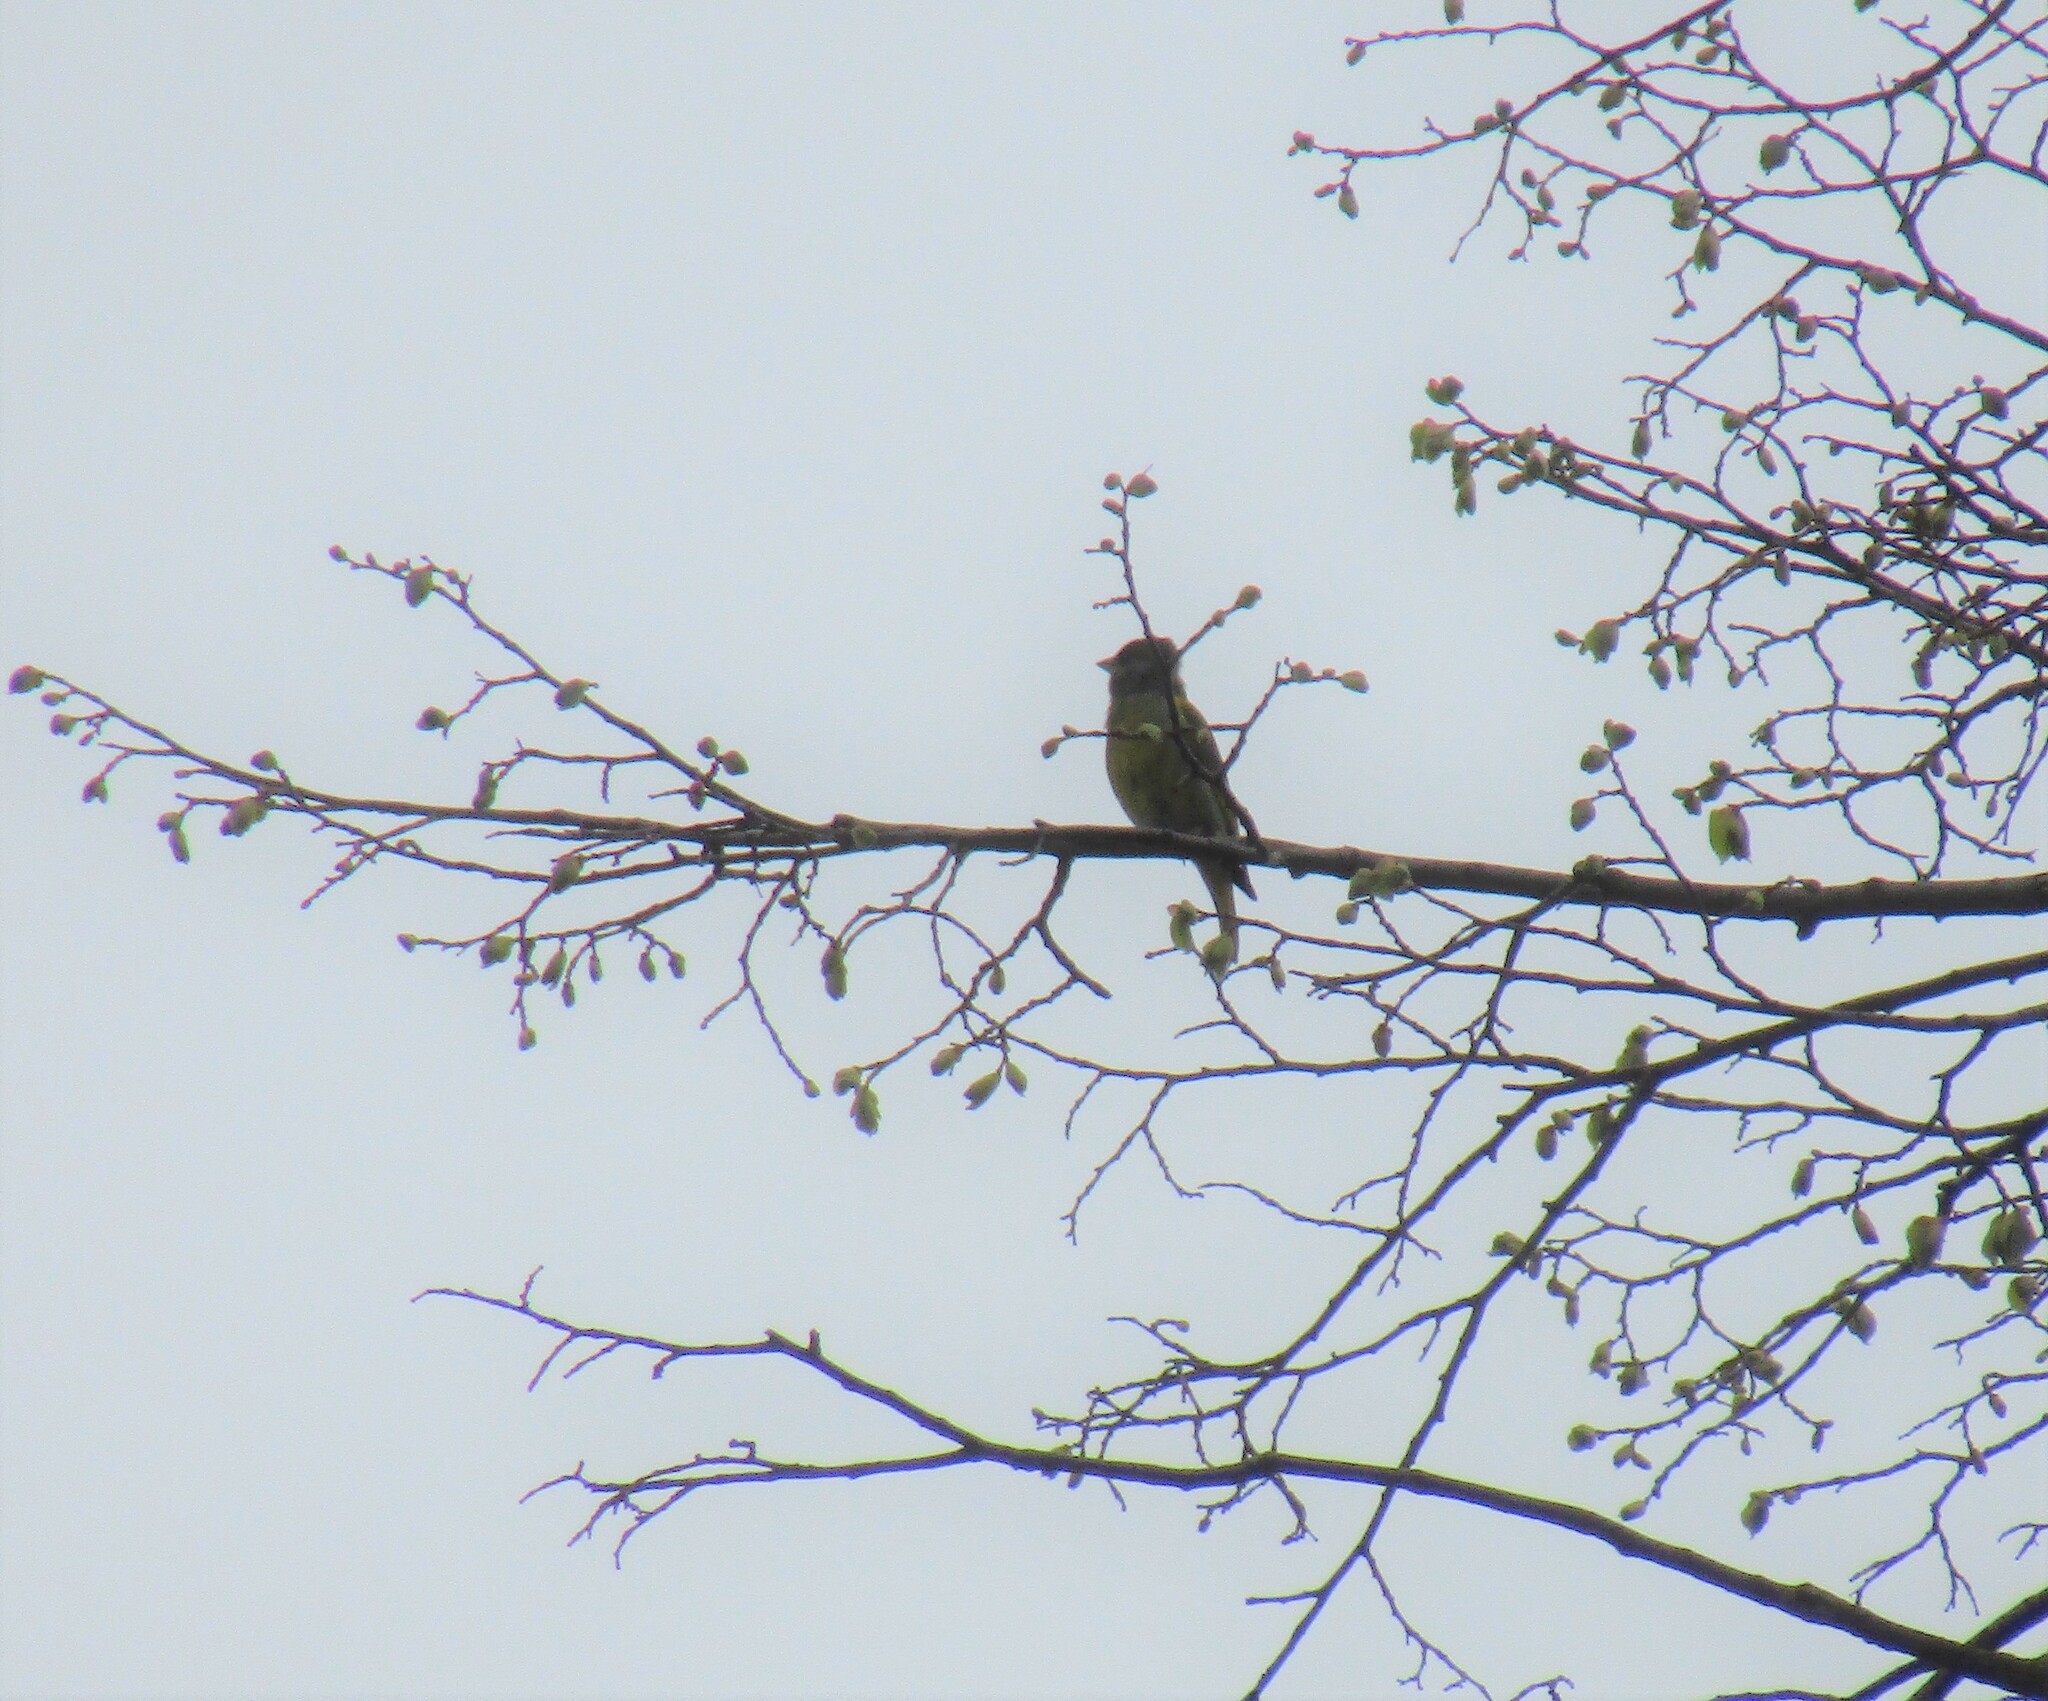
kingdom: Plantae
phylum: Tracheophyta
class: Liliopsida
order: Poales
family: Poaceae
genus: Chloris
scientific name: Chloris chloris
